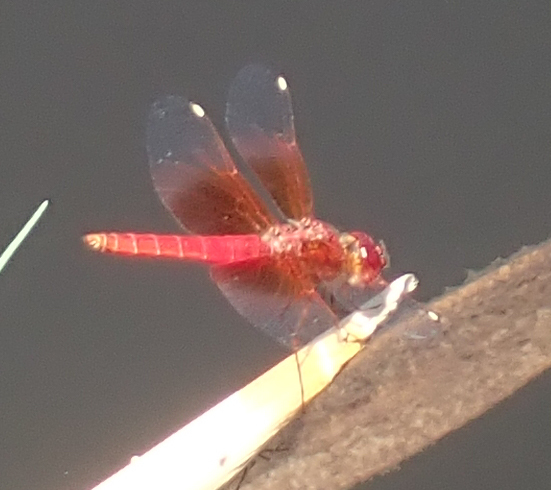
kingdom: Animalia
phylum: Arthropoda
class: Insecta
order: Odonata
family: Libellulidae
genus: Brachythemis
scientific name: Brachythemis lacustris
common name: Red groundling
